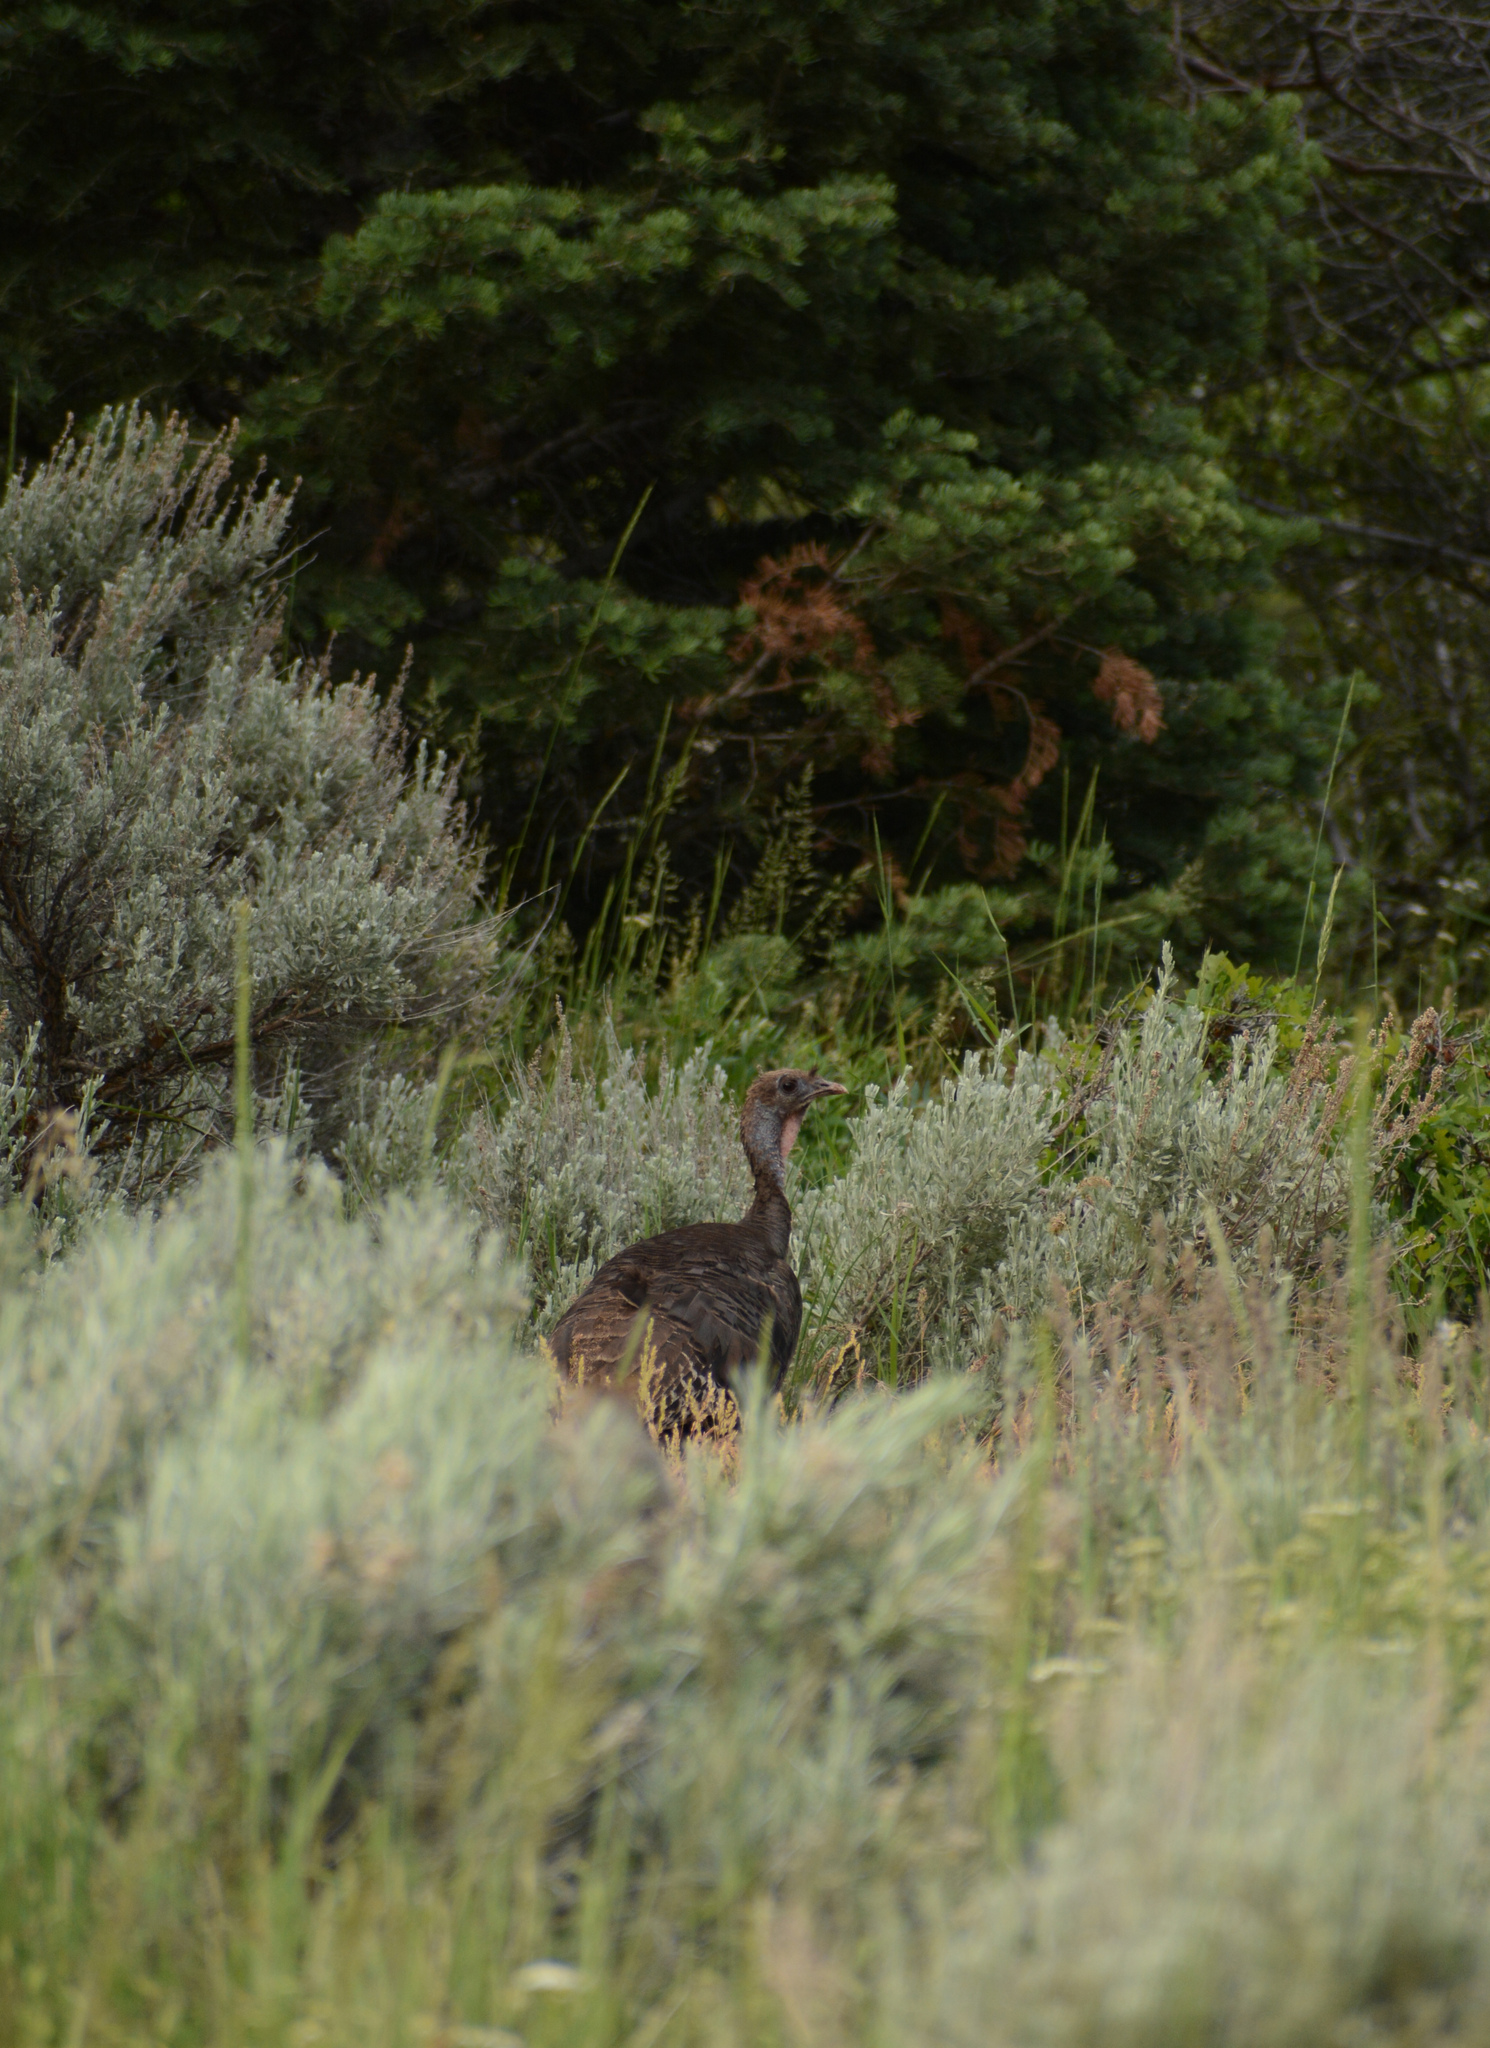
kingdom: Animalia
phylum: Chordata
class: Aves
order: Galliformes
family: Phasianidae
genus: Meleagris
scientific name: Meleagris gallopavo
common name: Wild turkey
